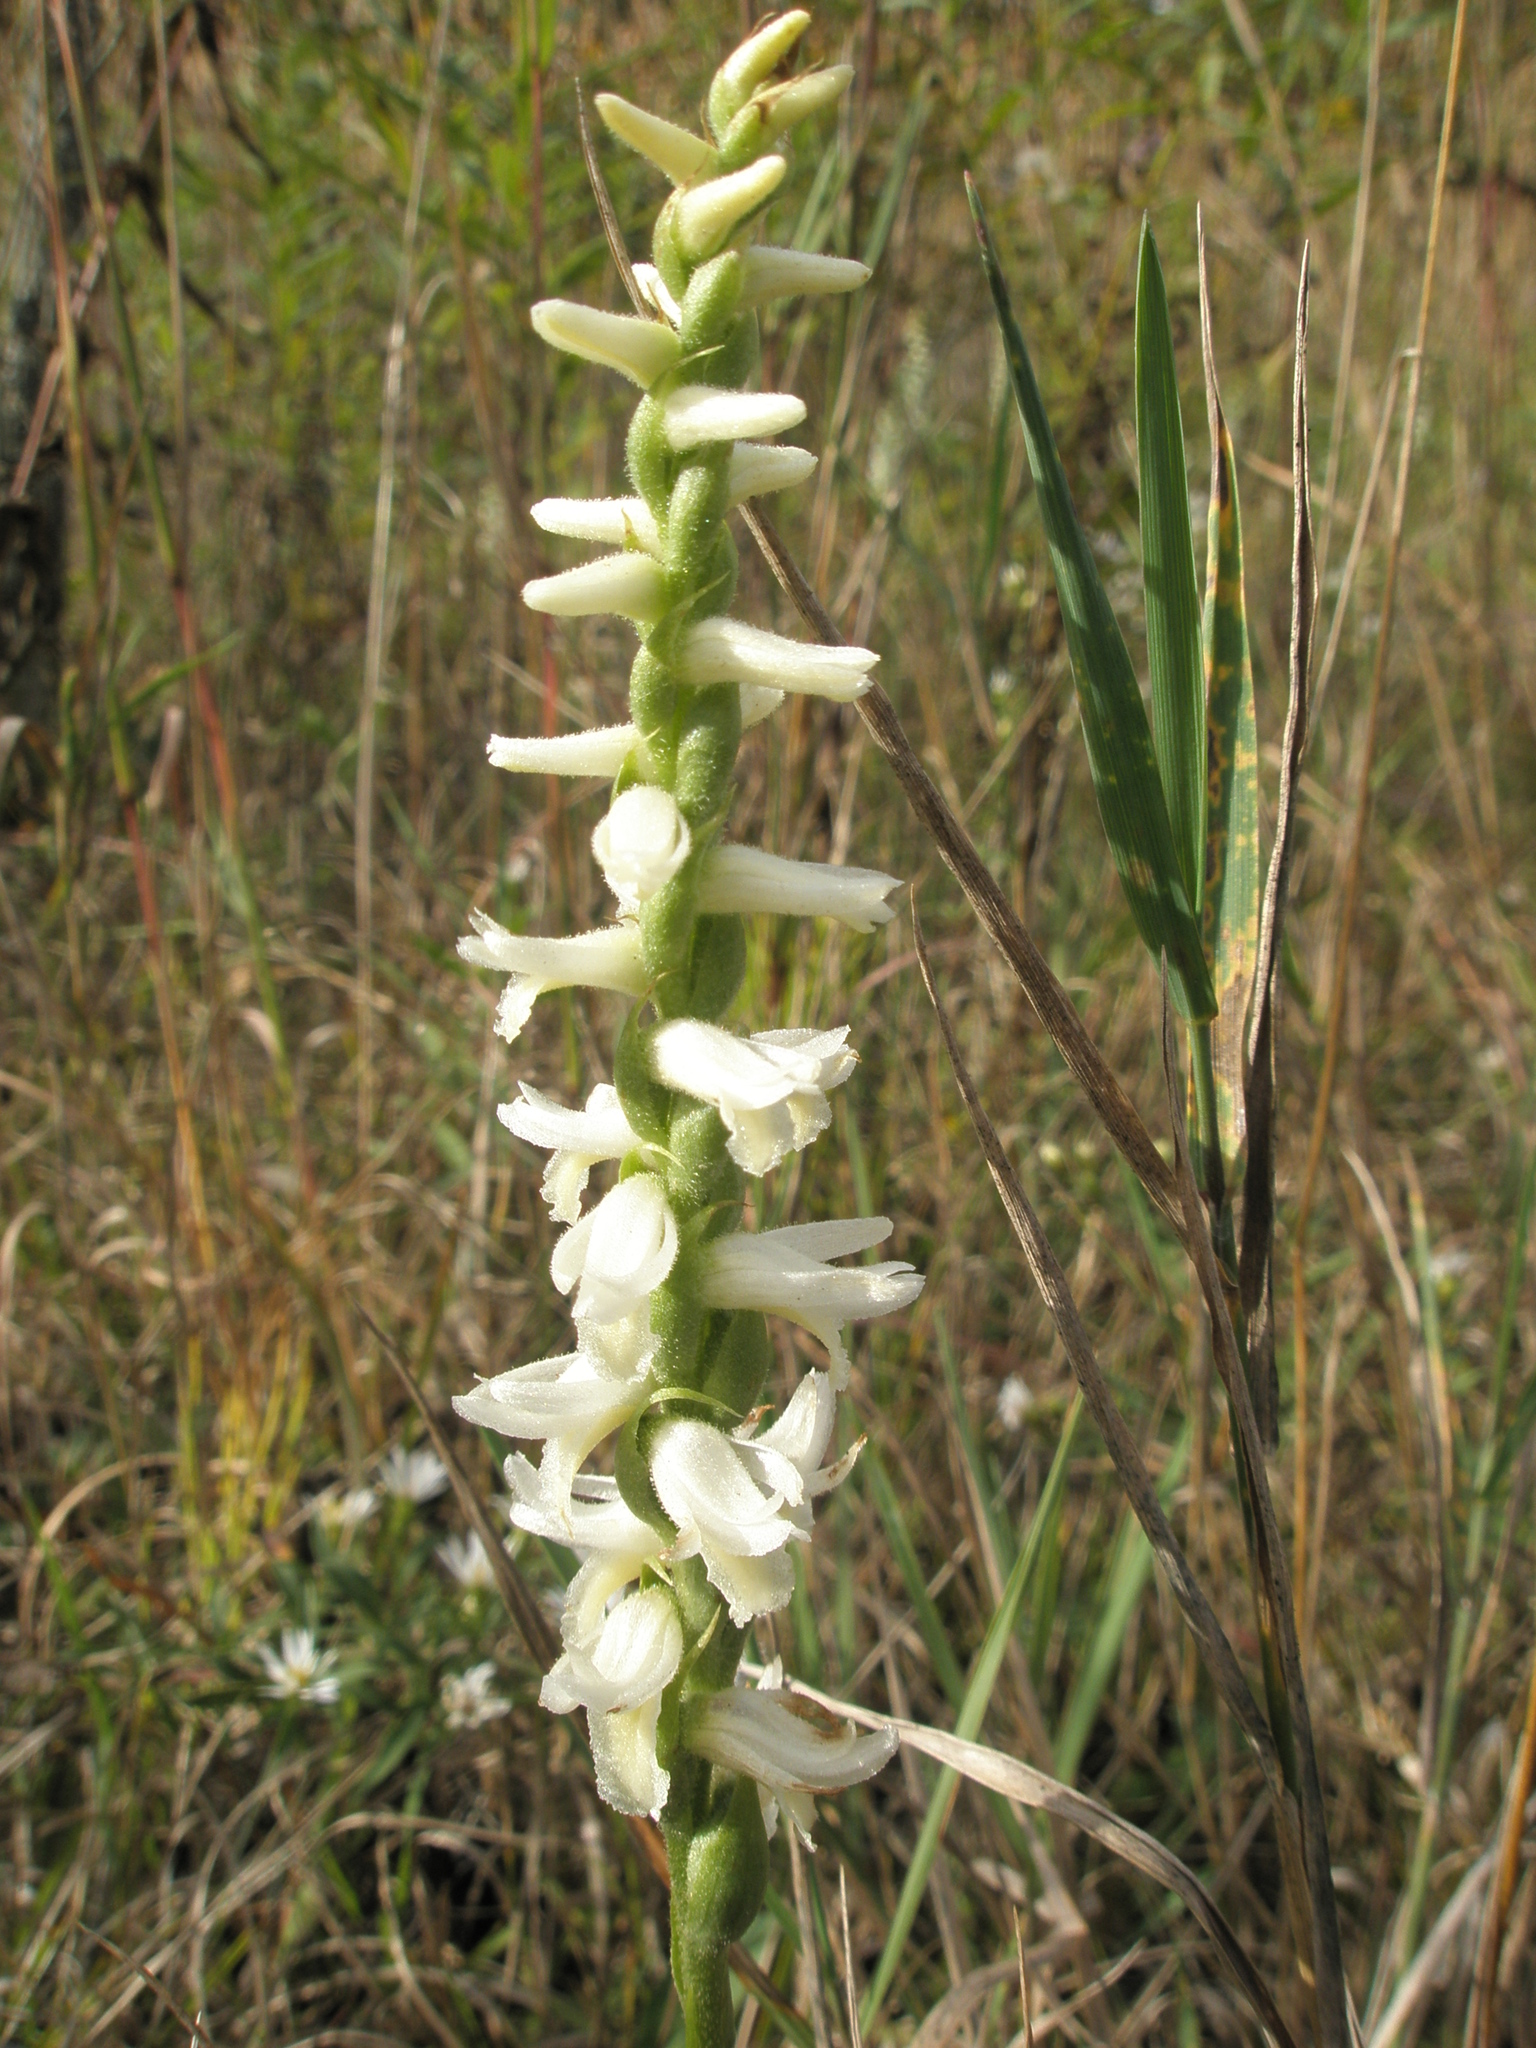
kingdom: Plantae
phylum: Tracheophyta
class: Liliopsida
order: Asparagales
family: Orchidaceae
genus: Spiranthes
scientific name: Spiranthes magnicamporum
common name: Great plains ladies'-tresses
